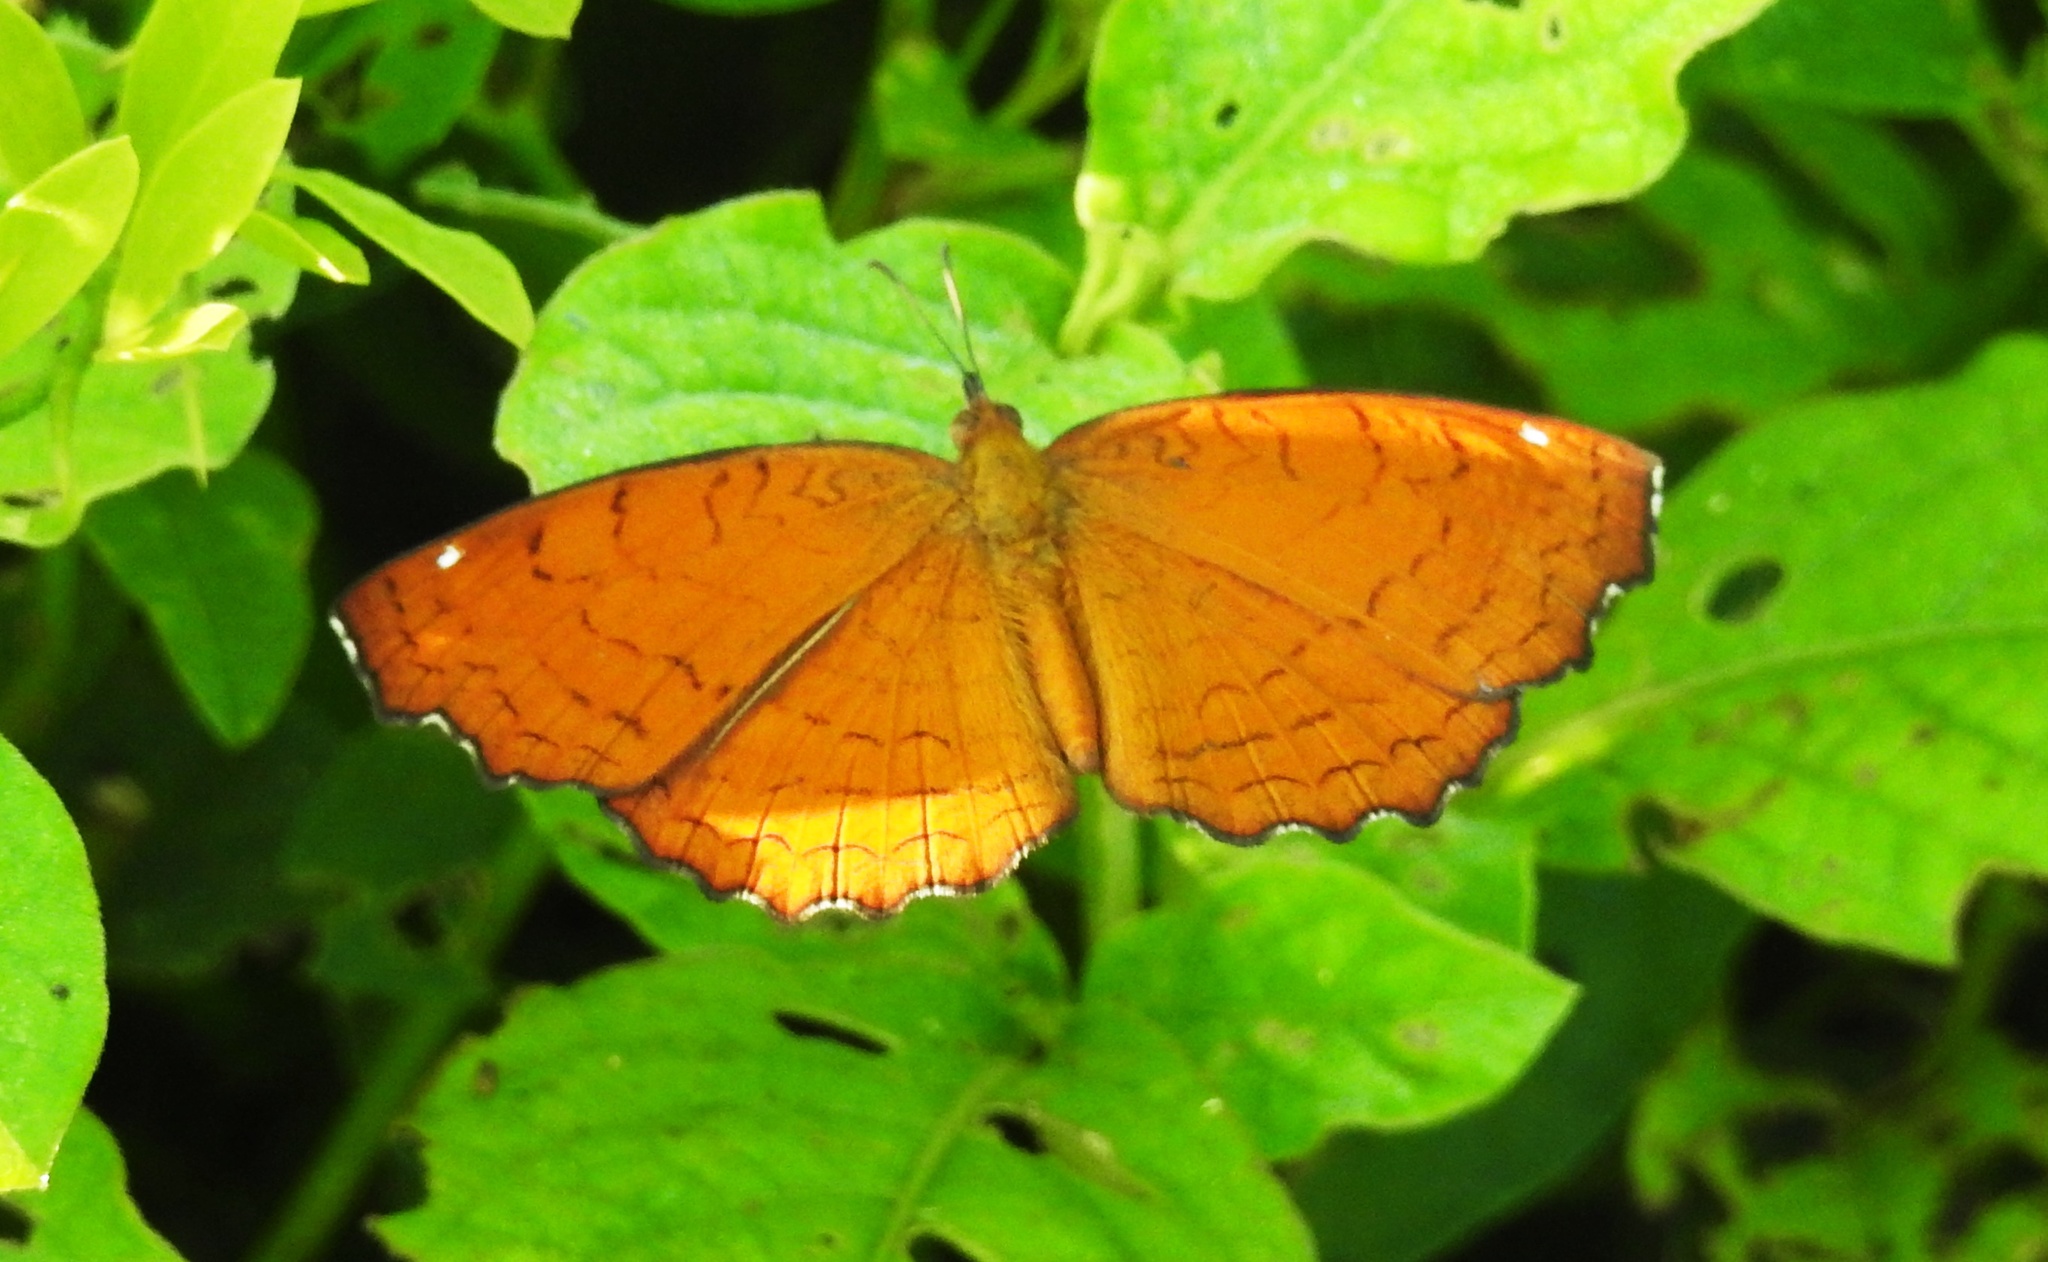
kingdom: Animalia
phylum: Arthropoda
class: Insecta
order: Lepidoptera
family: Nymphalidae
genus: Ariadne
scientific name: Ariadne ariadne
